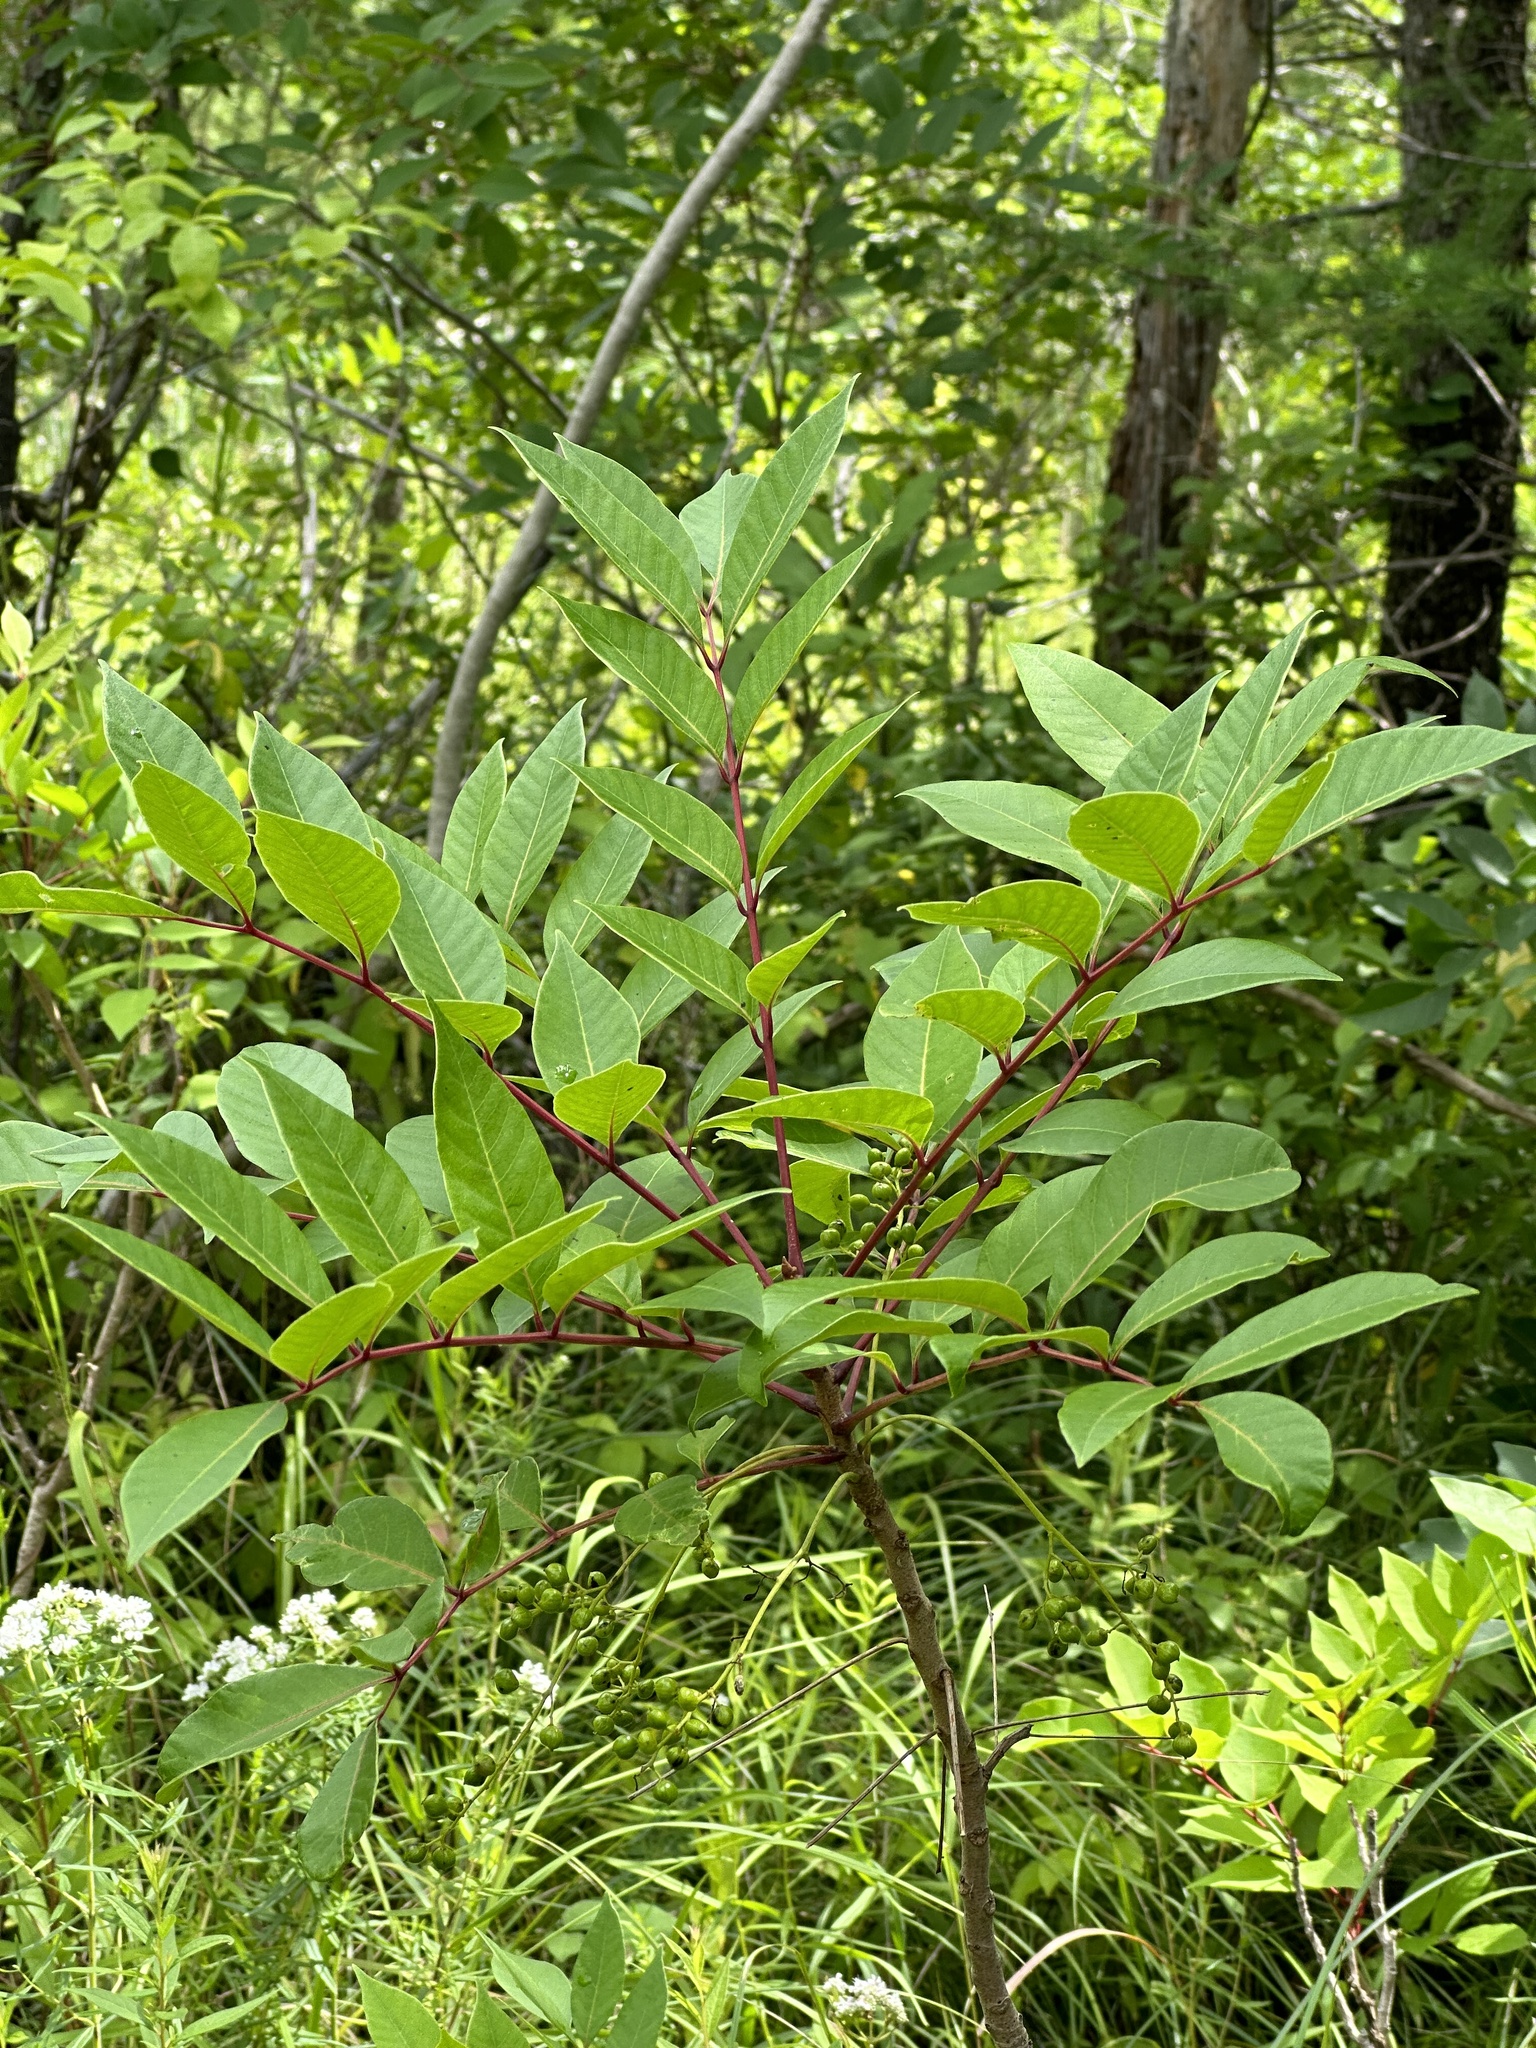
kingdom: Plantae
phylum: Tracheophyta
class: Magnoliopsida
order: Sapindales
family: Anacardiaceae
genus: Toxicodendron
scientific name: Toxicodendron vernix
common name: Poison sumac
